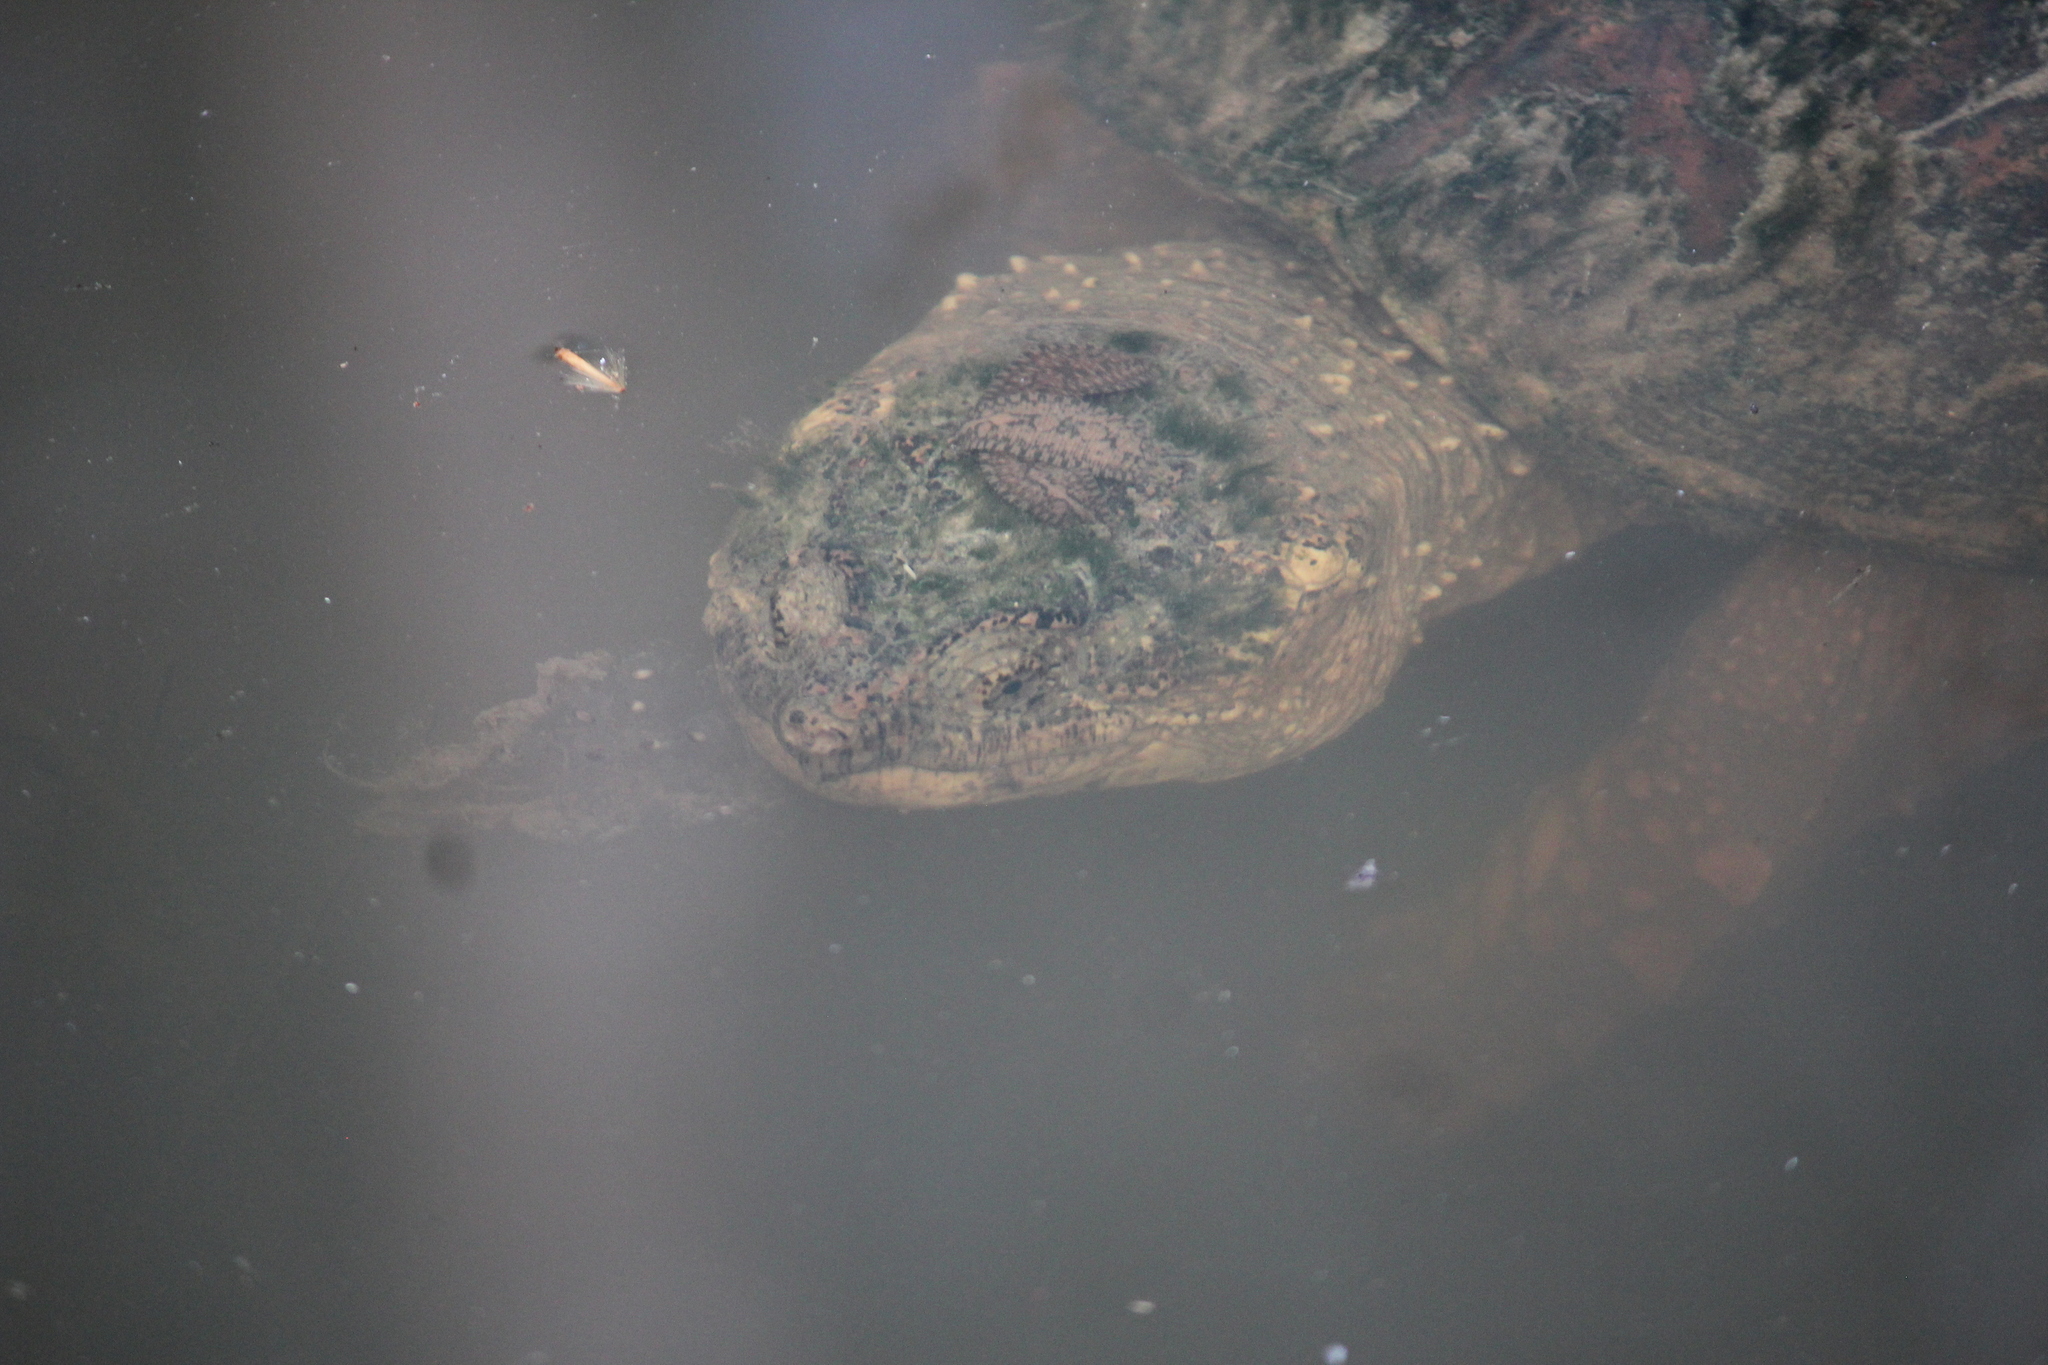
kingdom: Animalia
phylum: Chordata
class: Testudines
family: Chelydridae
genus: Chelydra
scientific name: Chelydra serpentina
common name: Common snapping turtle
